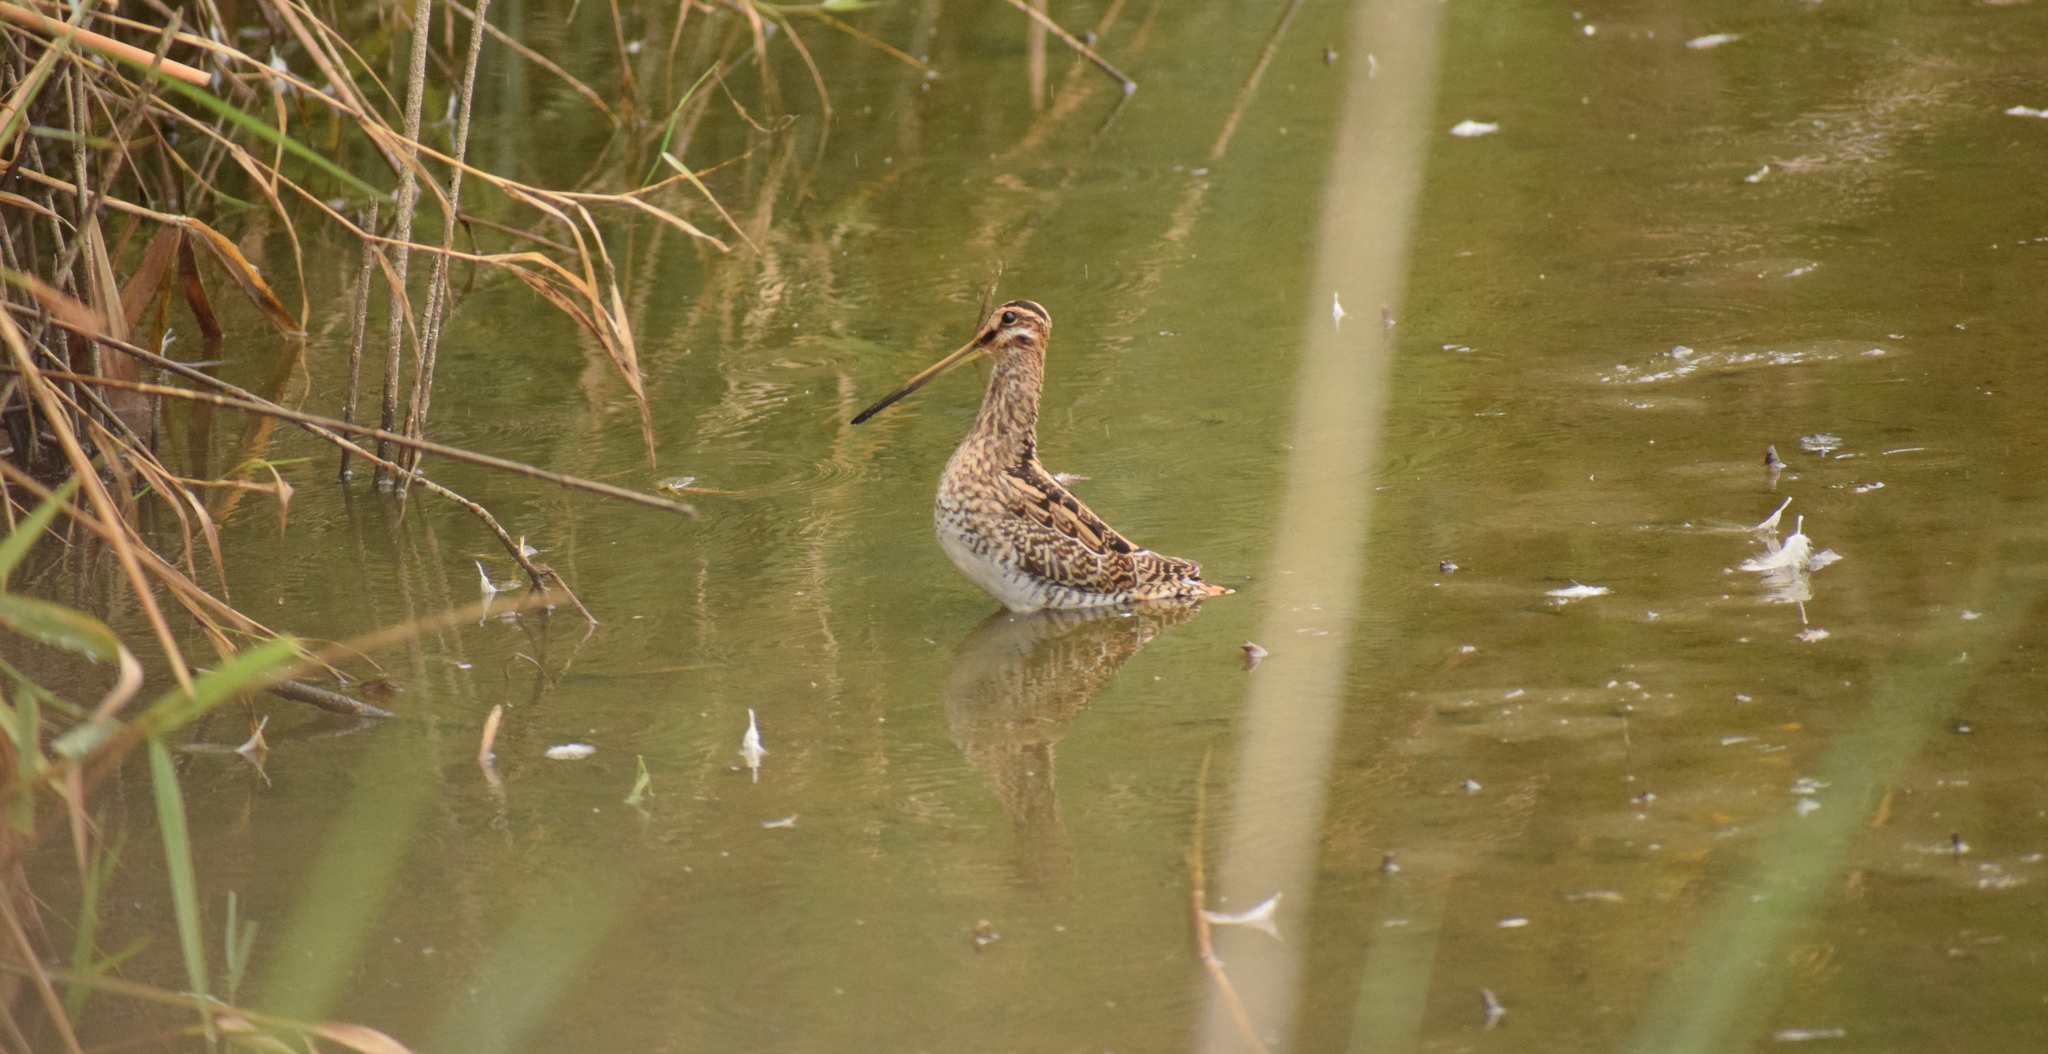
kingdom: Animalia
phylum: Chordata
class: Aves
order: Charadriiformes
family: Scolopacidae
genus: Gallinago
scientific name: Gallinago gallinago
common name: Common snipe
